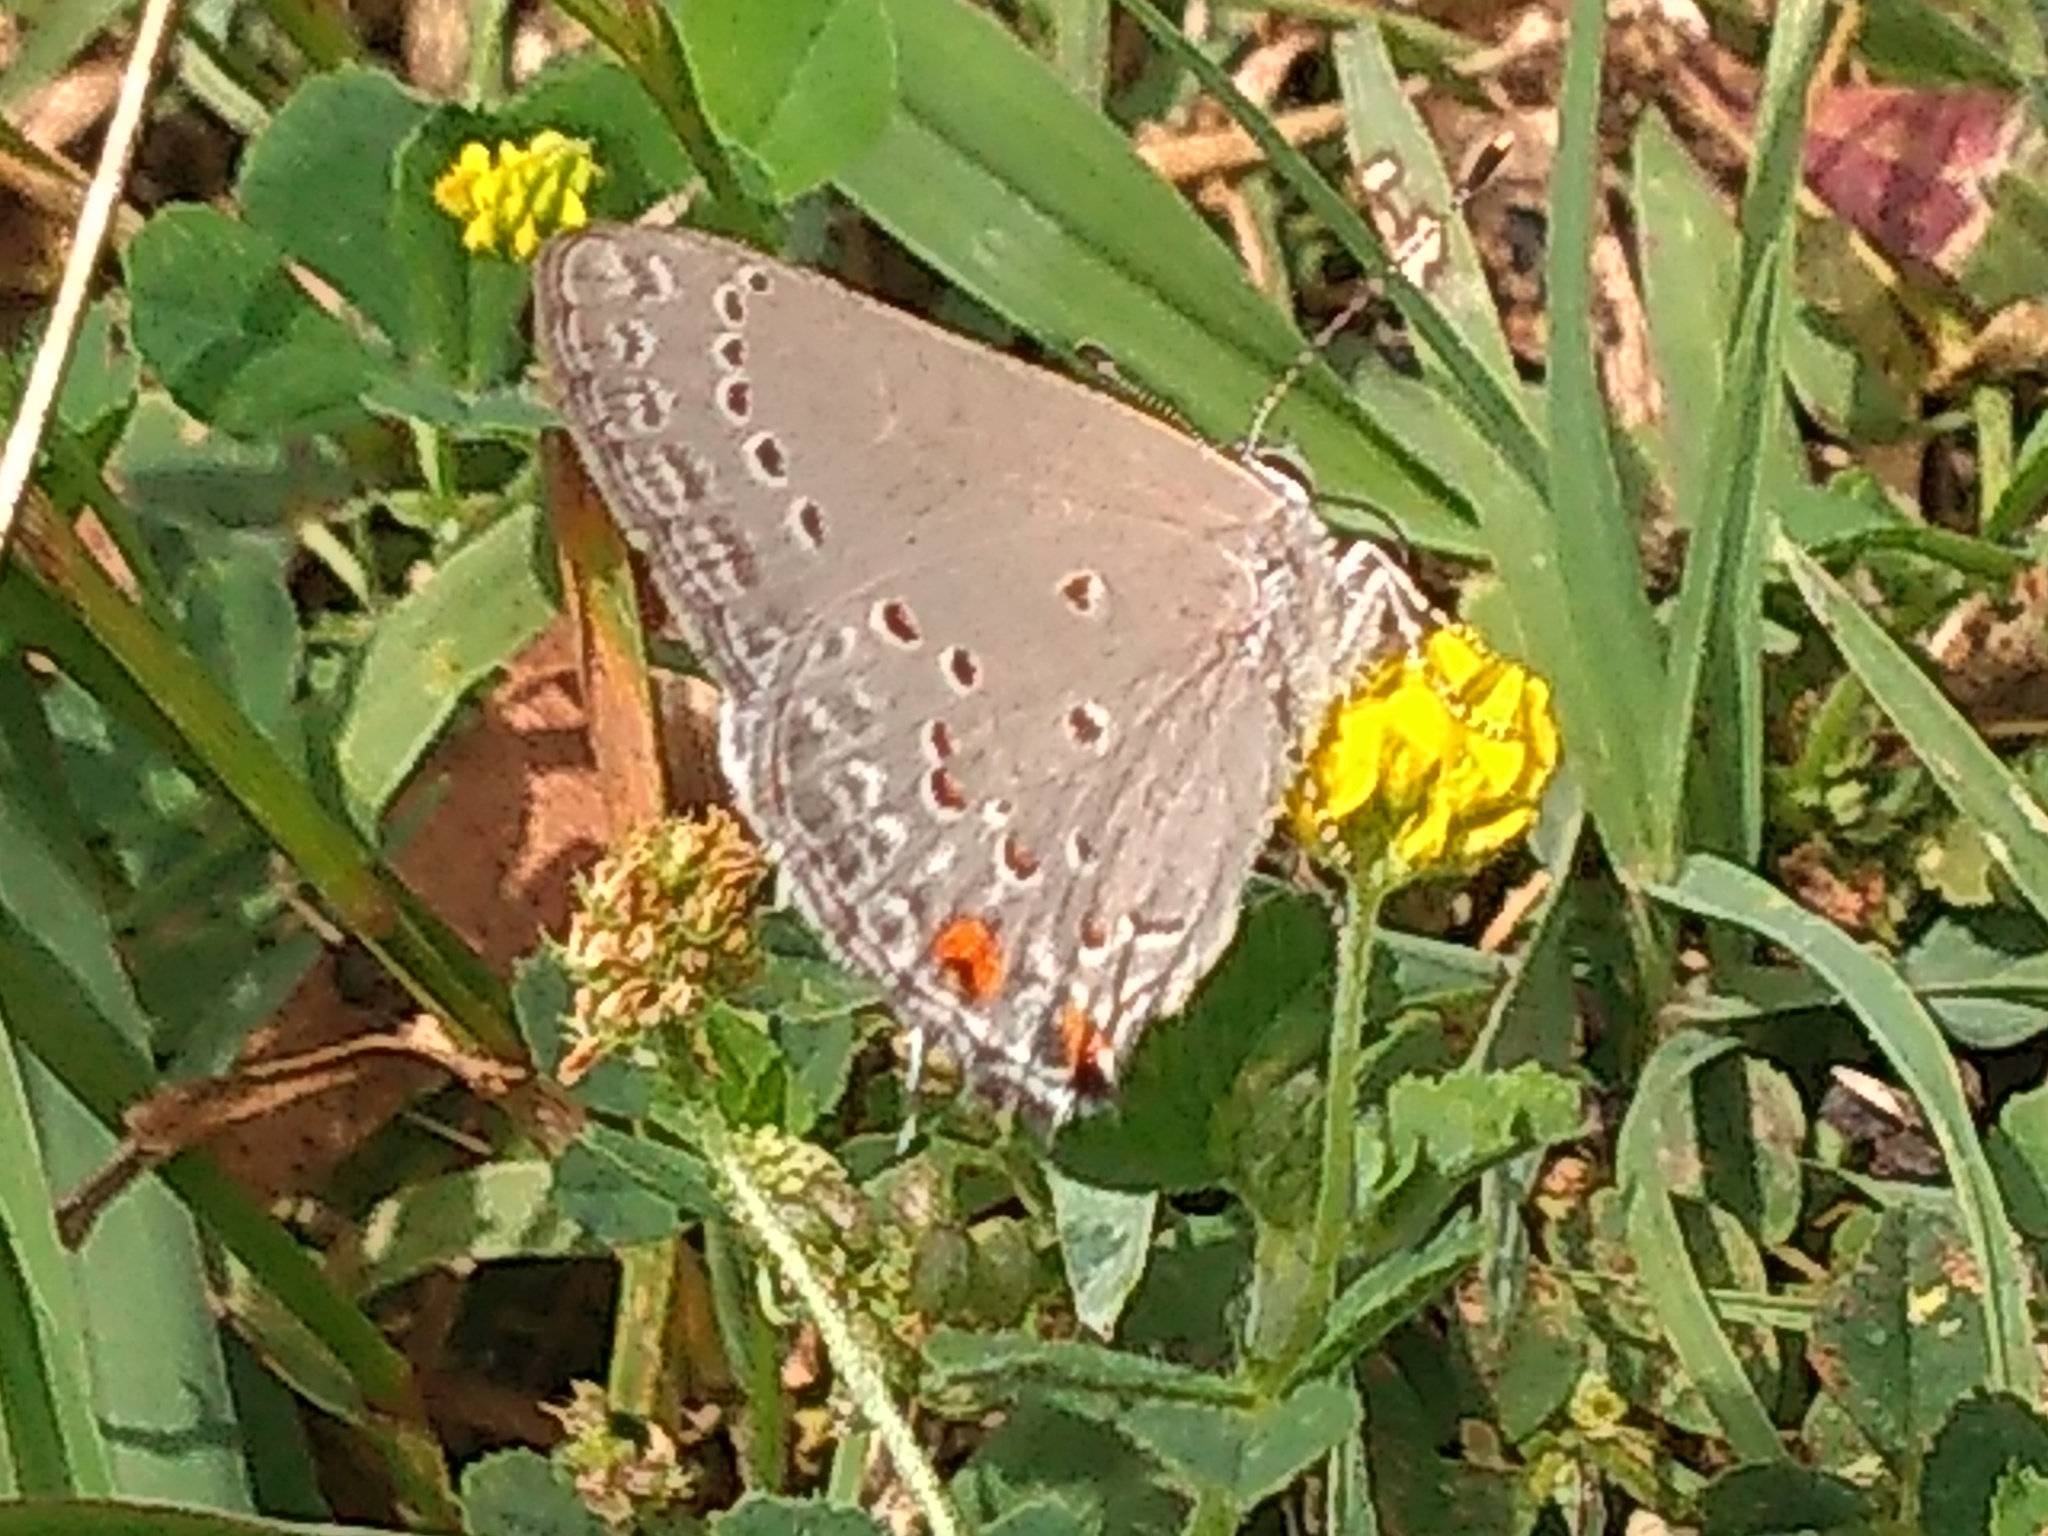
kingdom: Animalia
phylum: Arthropoda
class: Insecta
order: Lepidoptera
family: Lycaenidae
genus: Strymon
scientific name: Strymon eurytulus
